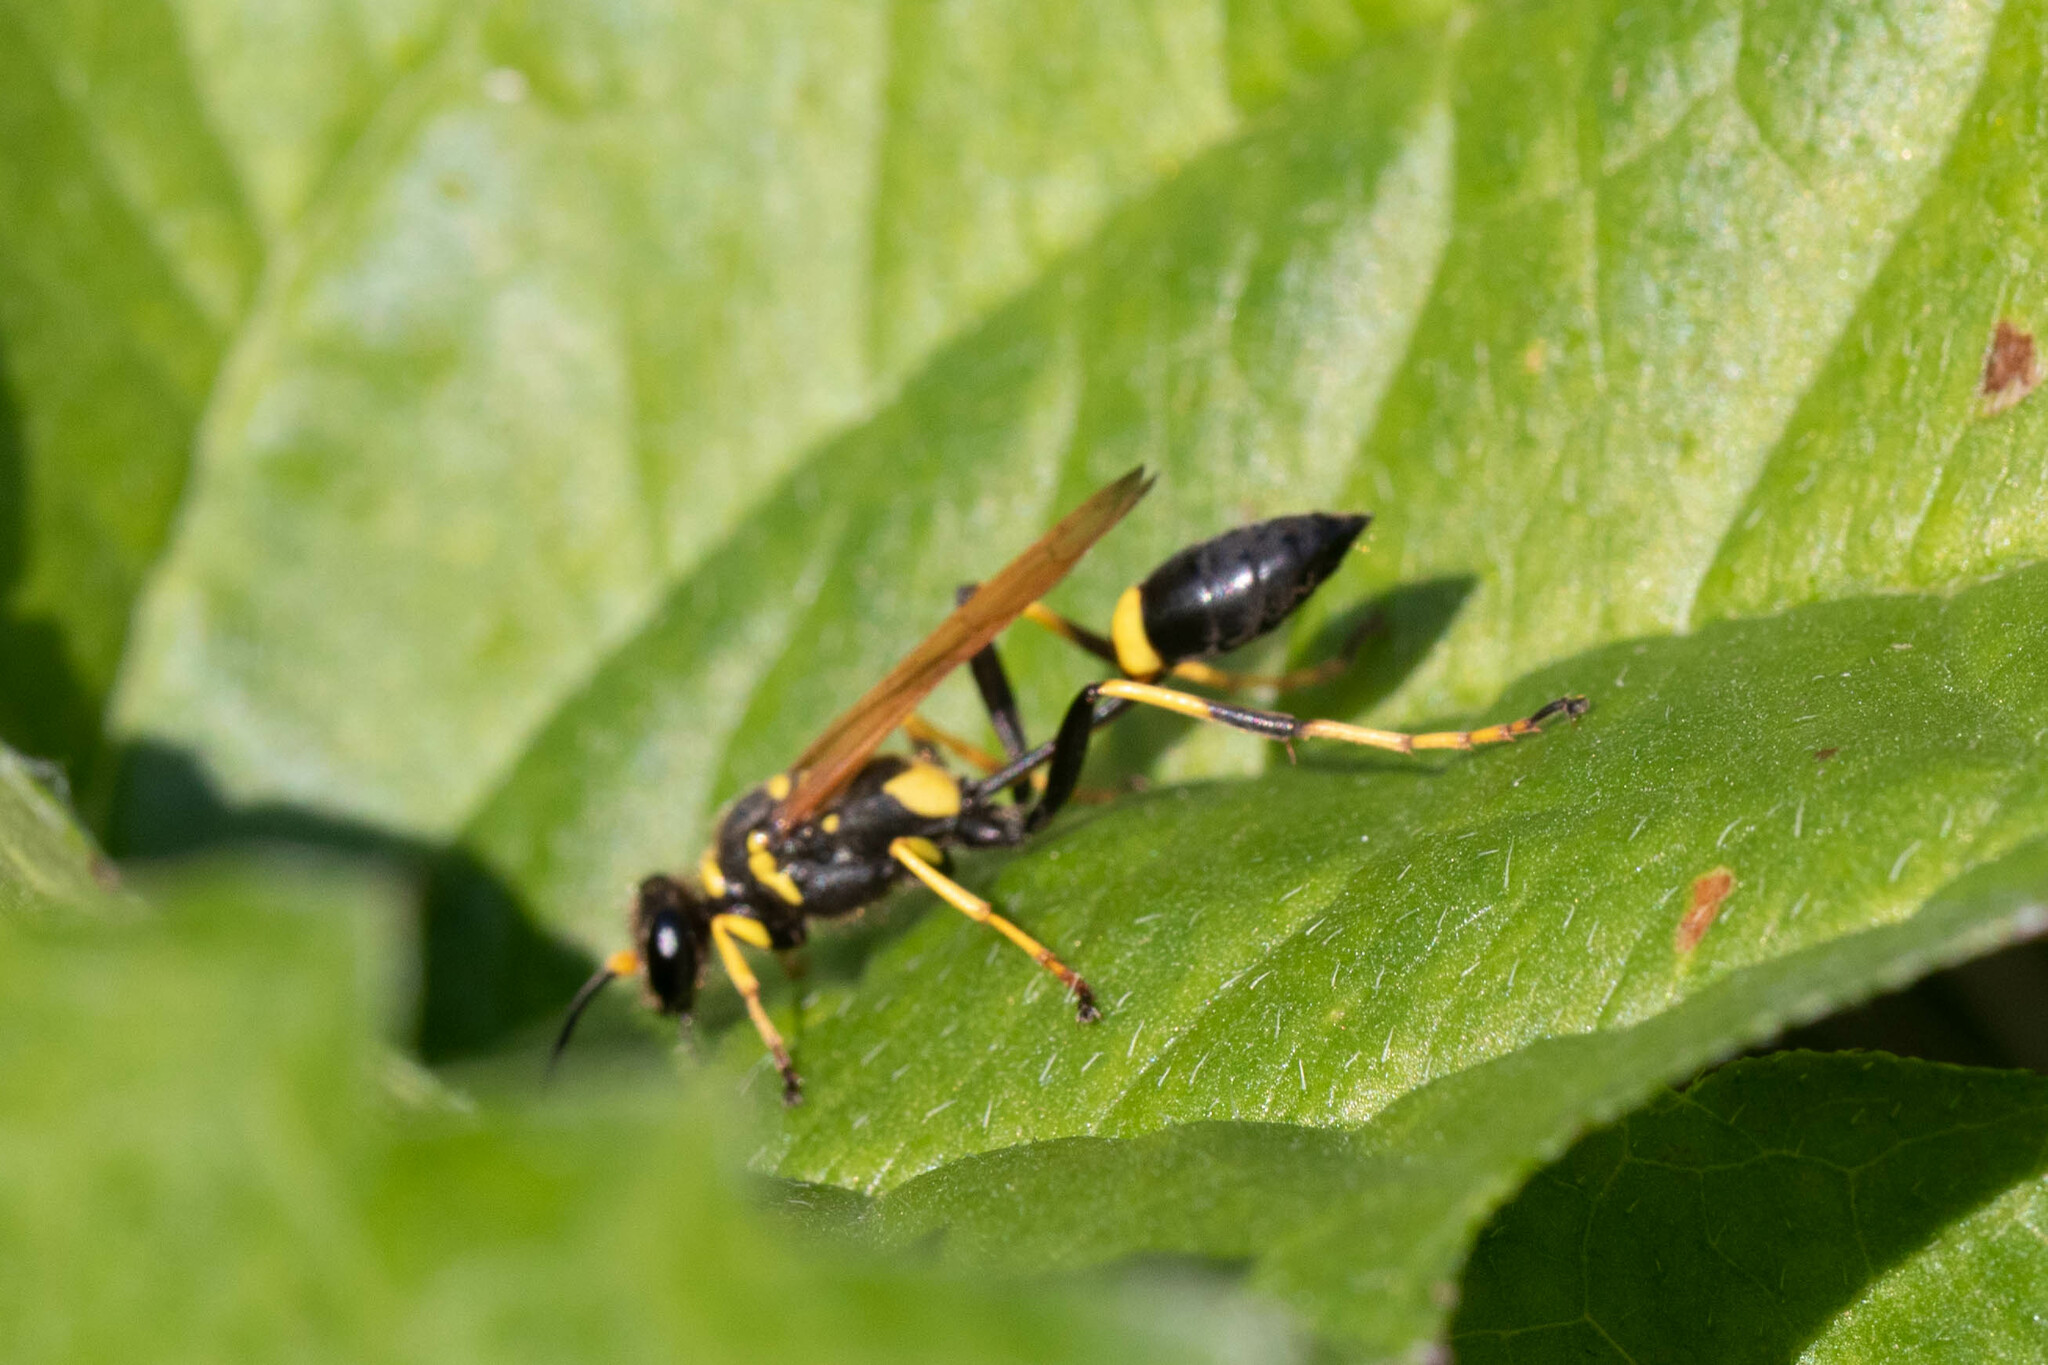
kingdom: Animalia
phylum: Arthropoda
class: Insecta
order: Hymenoptera
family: Sphecidae
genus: Sceliphron
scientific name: Sceliphron caementarium
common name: Mud dauber
